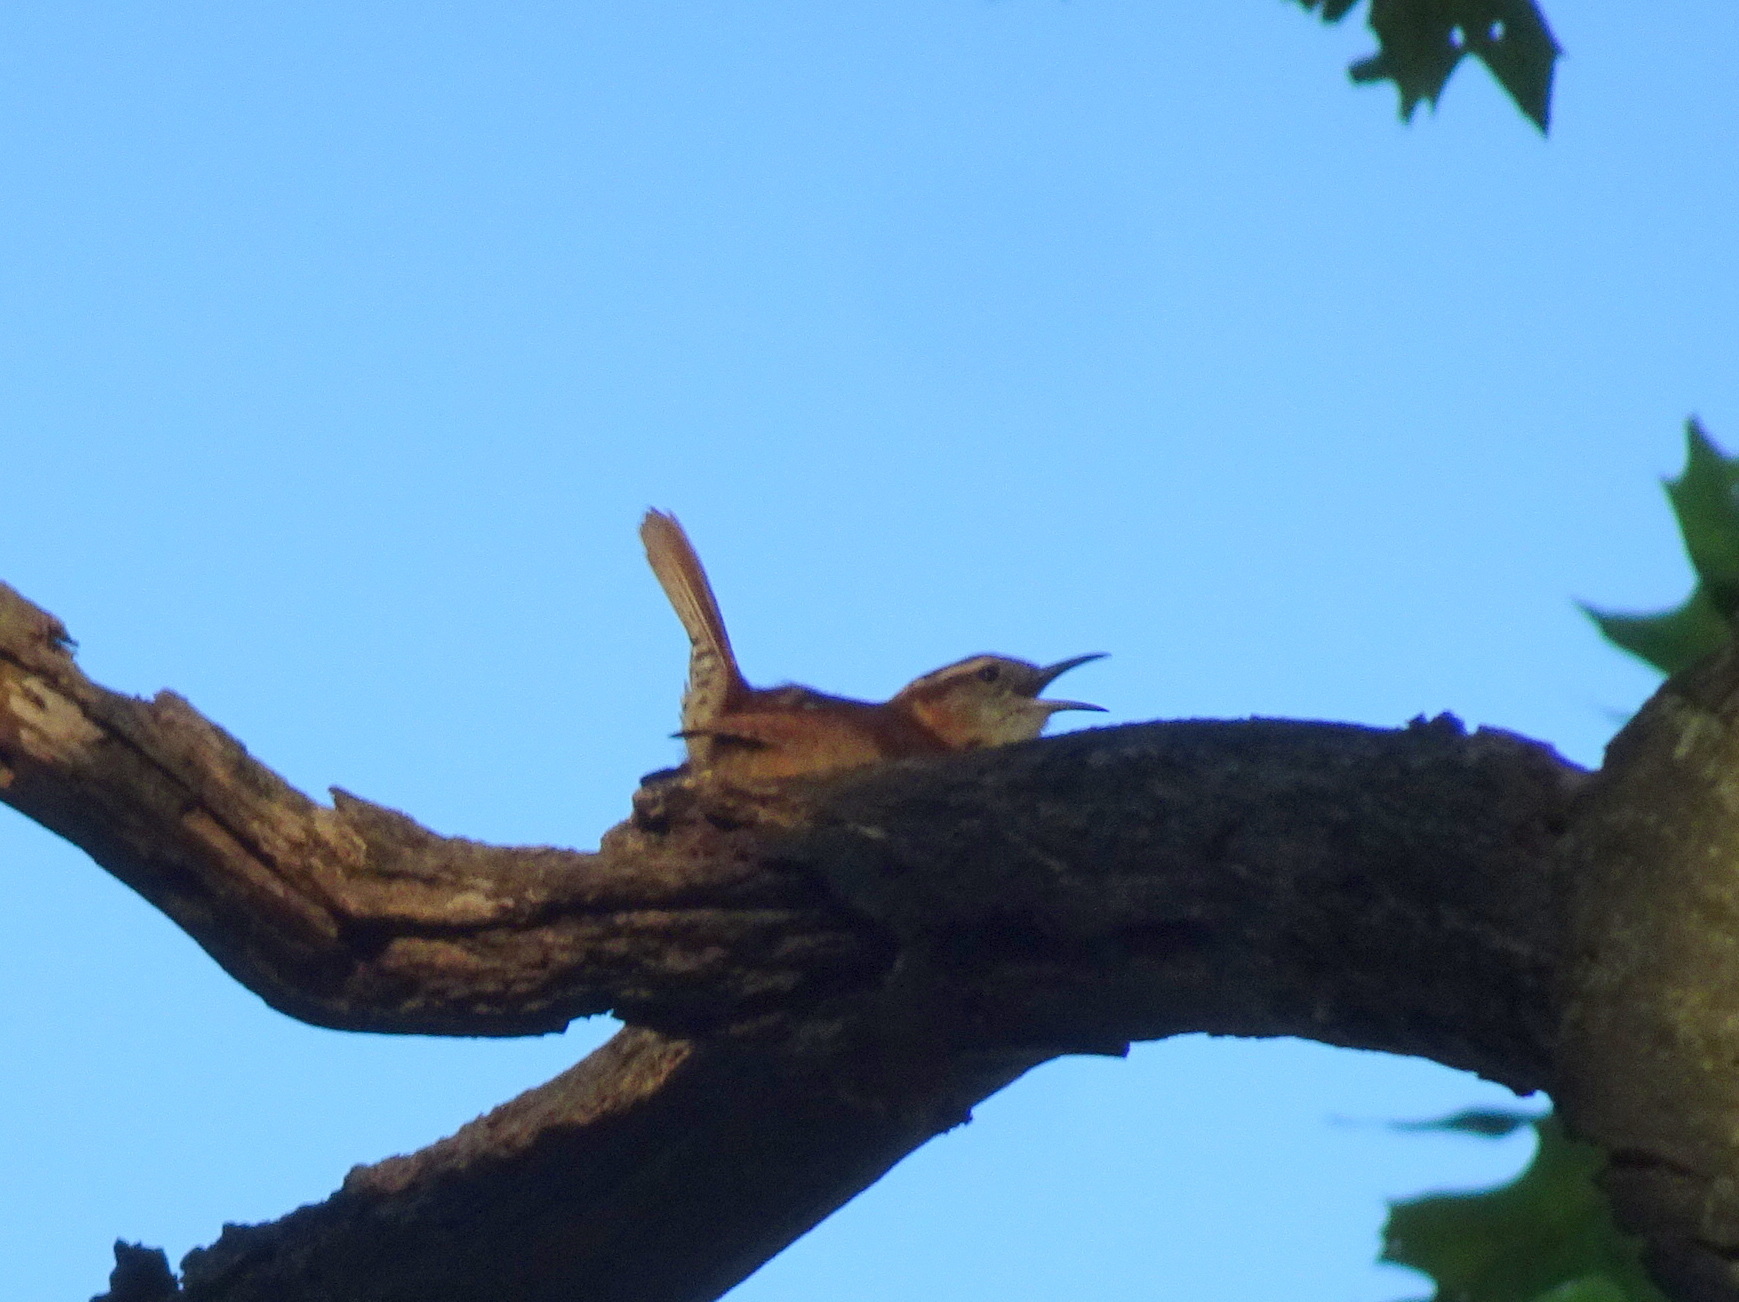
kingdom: Animalia
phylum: Chordata
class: Aves
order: Passeriformes
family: Troglodytidae
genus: Thryothorus
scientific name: Thryothorus ludovicianus
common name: Carolina wren
